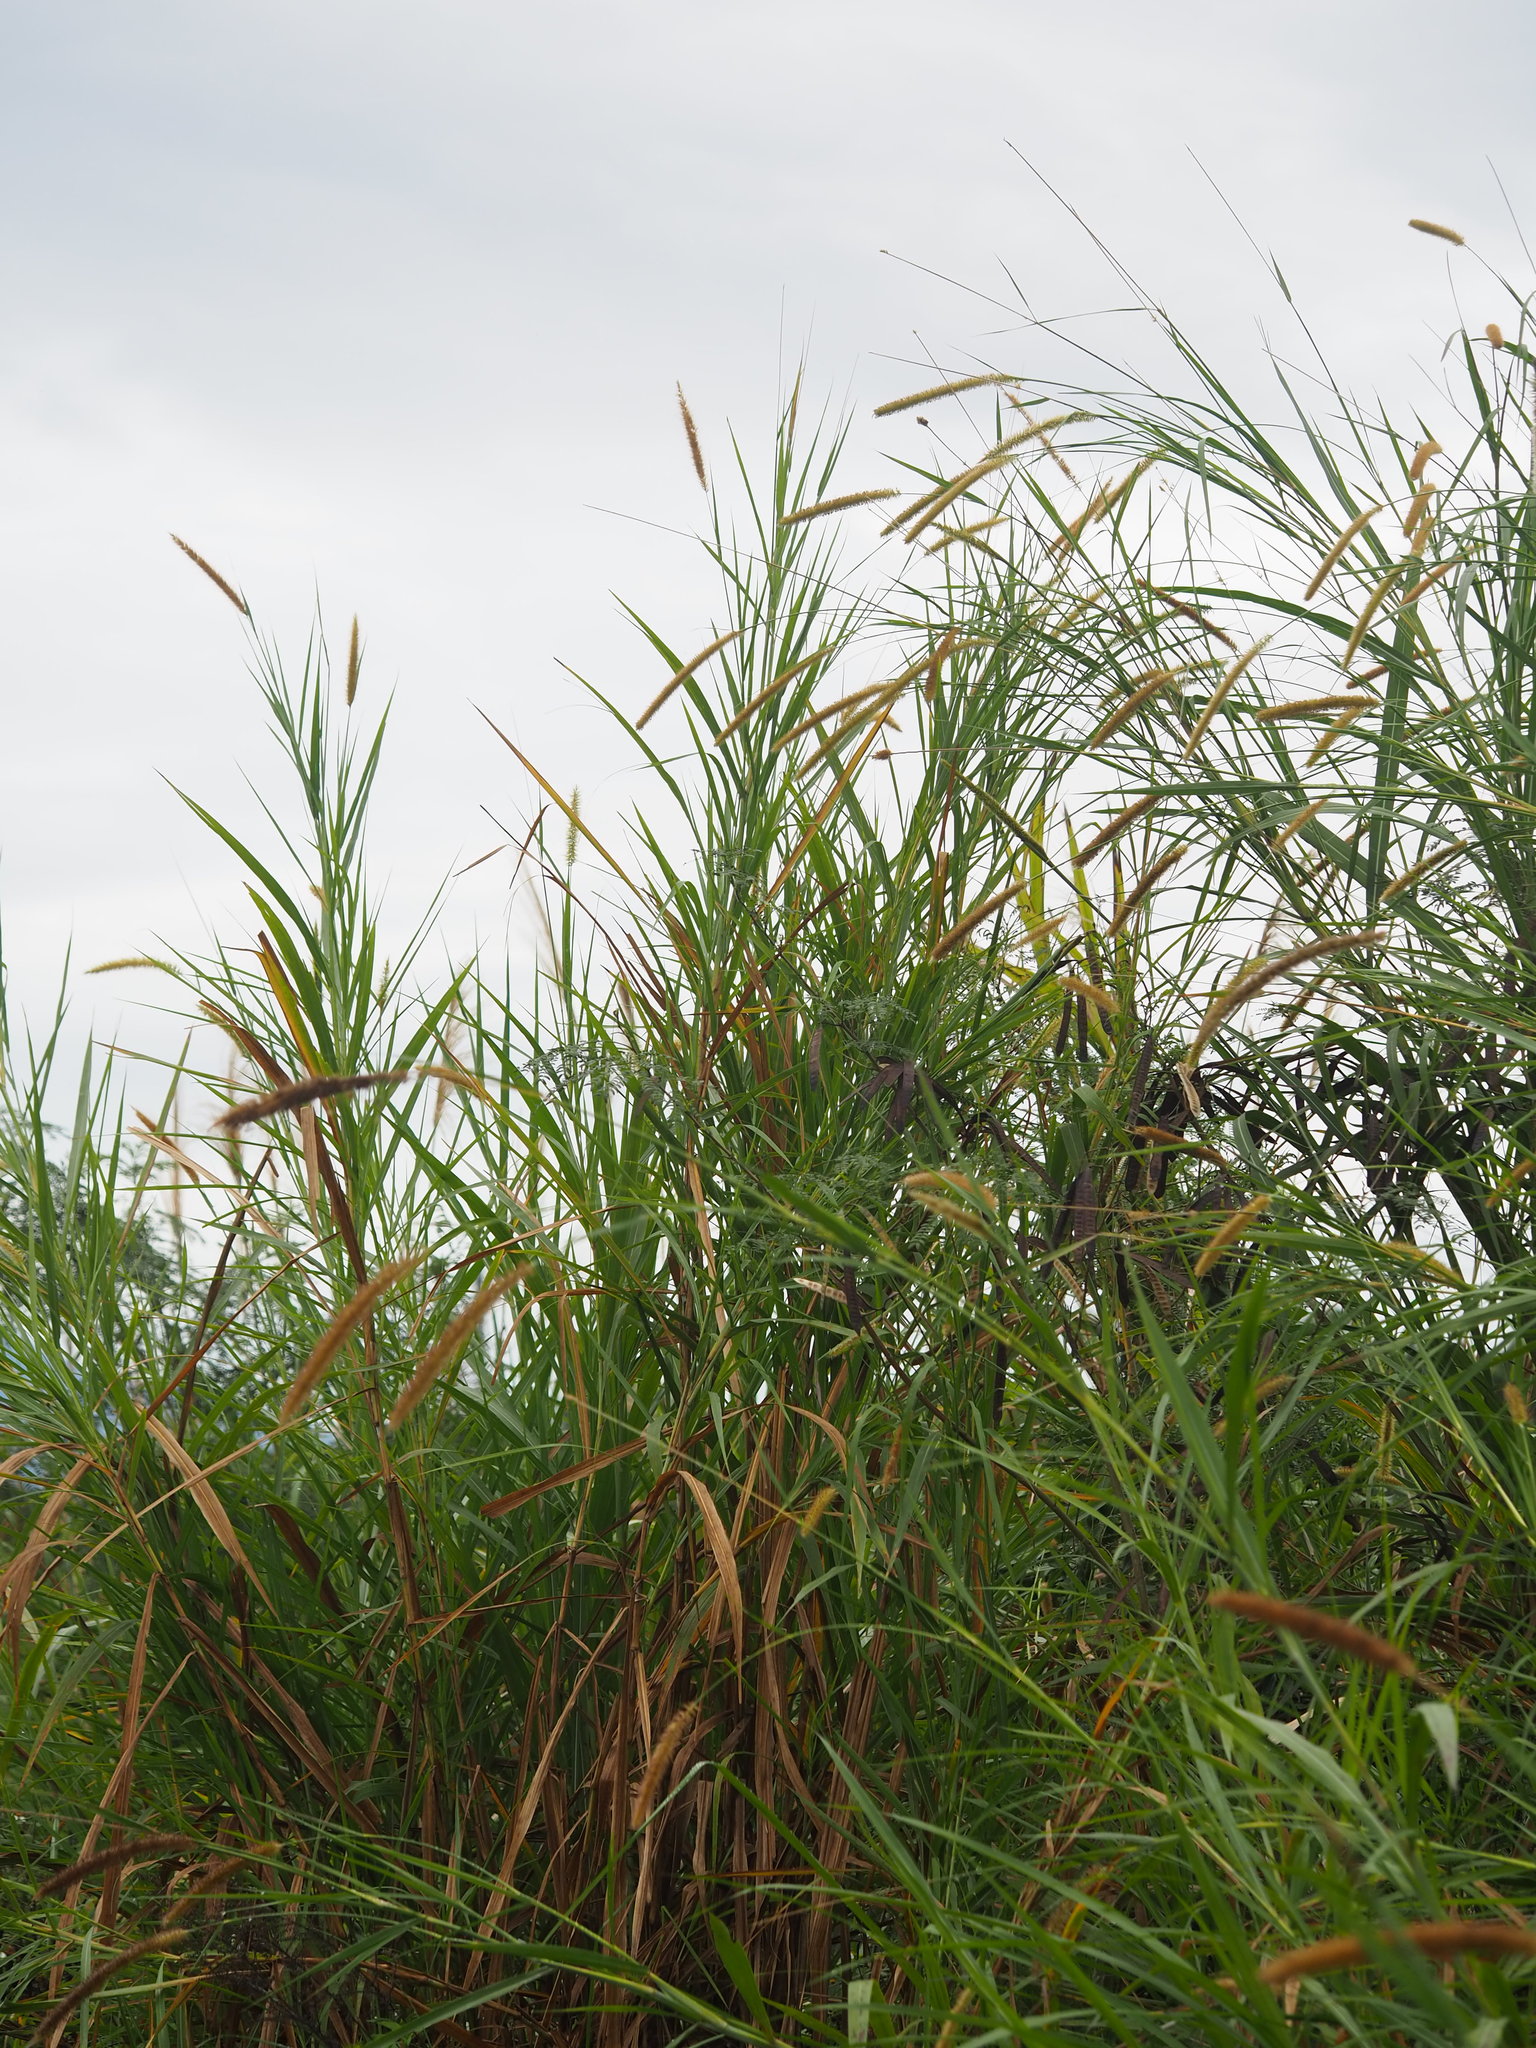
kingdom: Plantae
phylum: Tracheophyta
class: Liliopsida
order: Poales
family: Poaceae
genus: Cenchrus
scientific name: Cenchrus purpureus
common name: Elephant grass
